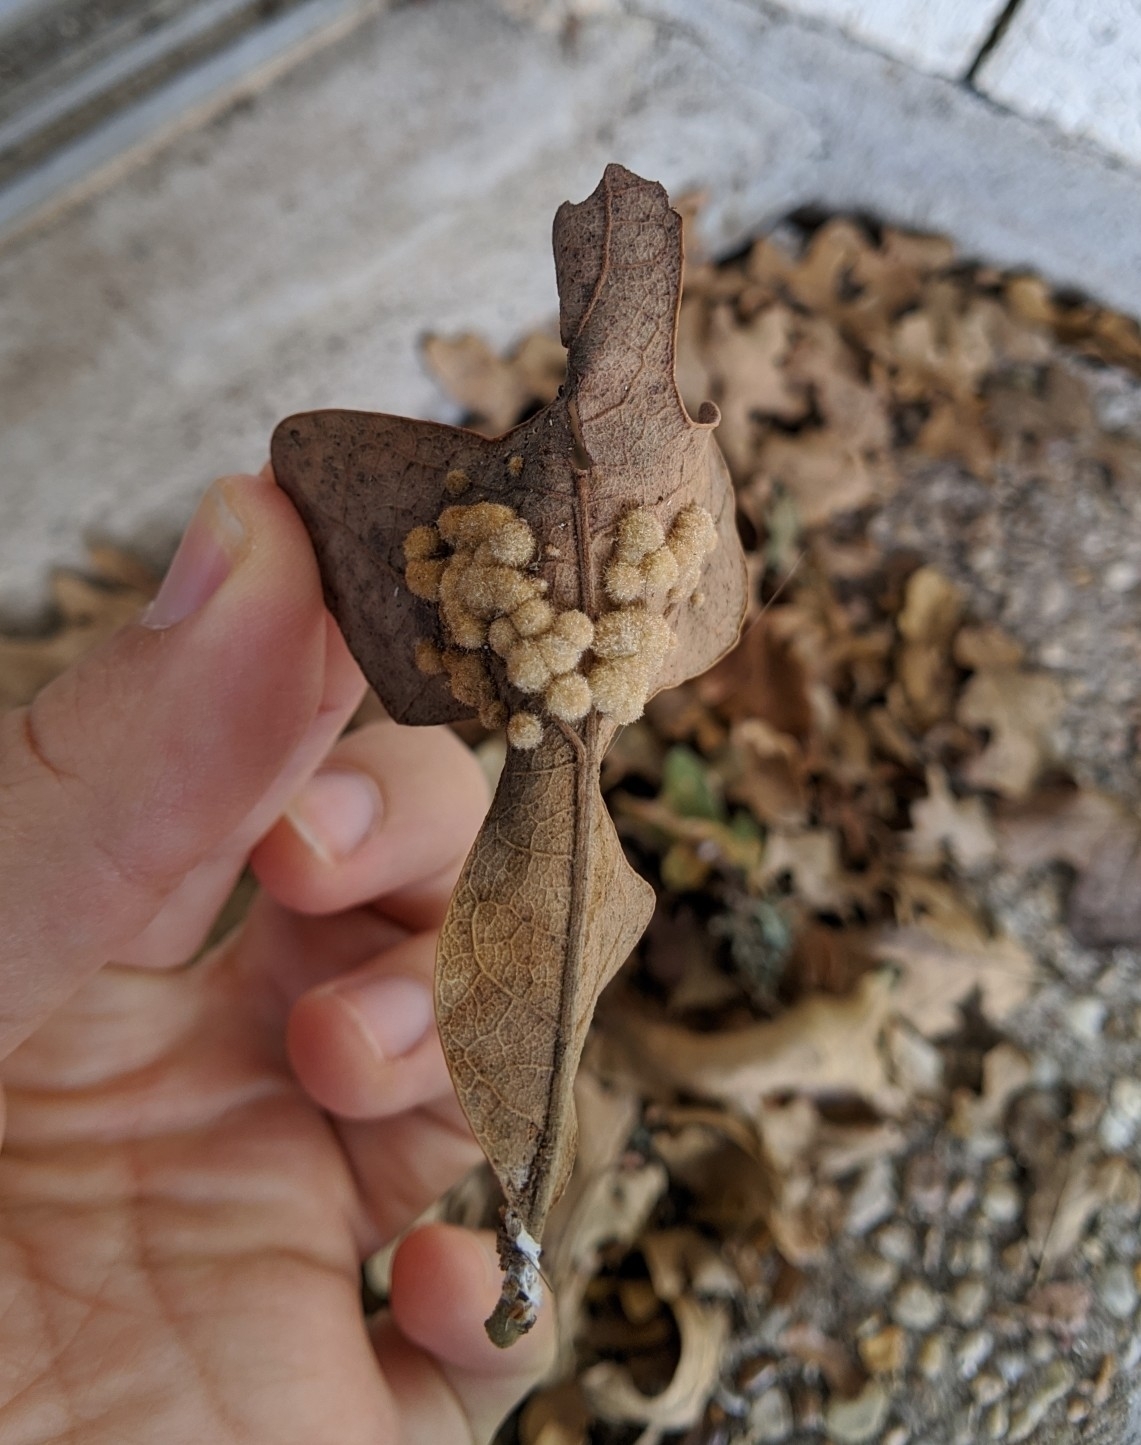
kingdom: Animalia
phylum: Arthropoda
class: Insecta
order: Hymenoptera
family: Cynipidae
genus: Andricus
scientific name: Andricus
